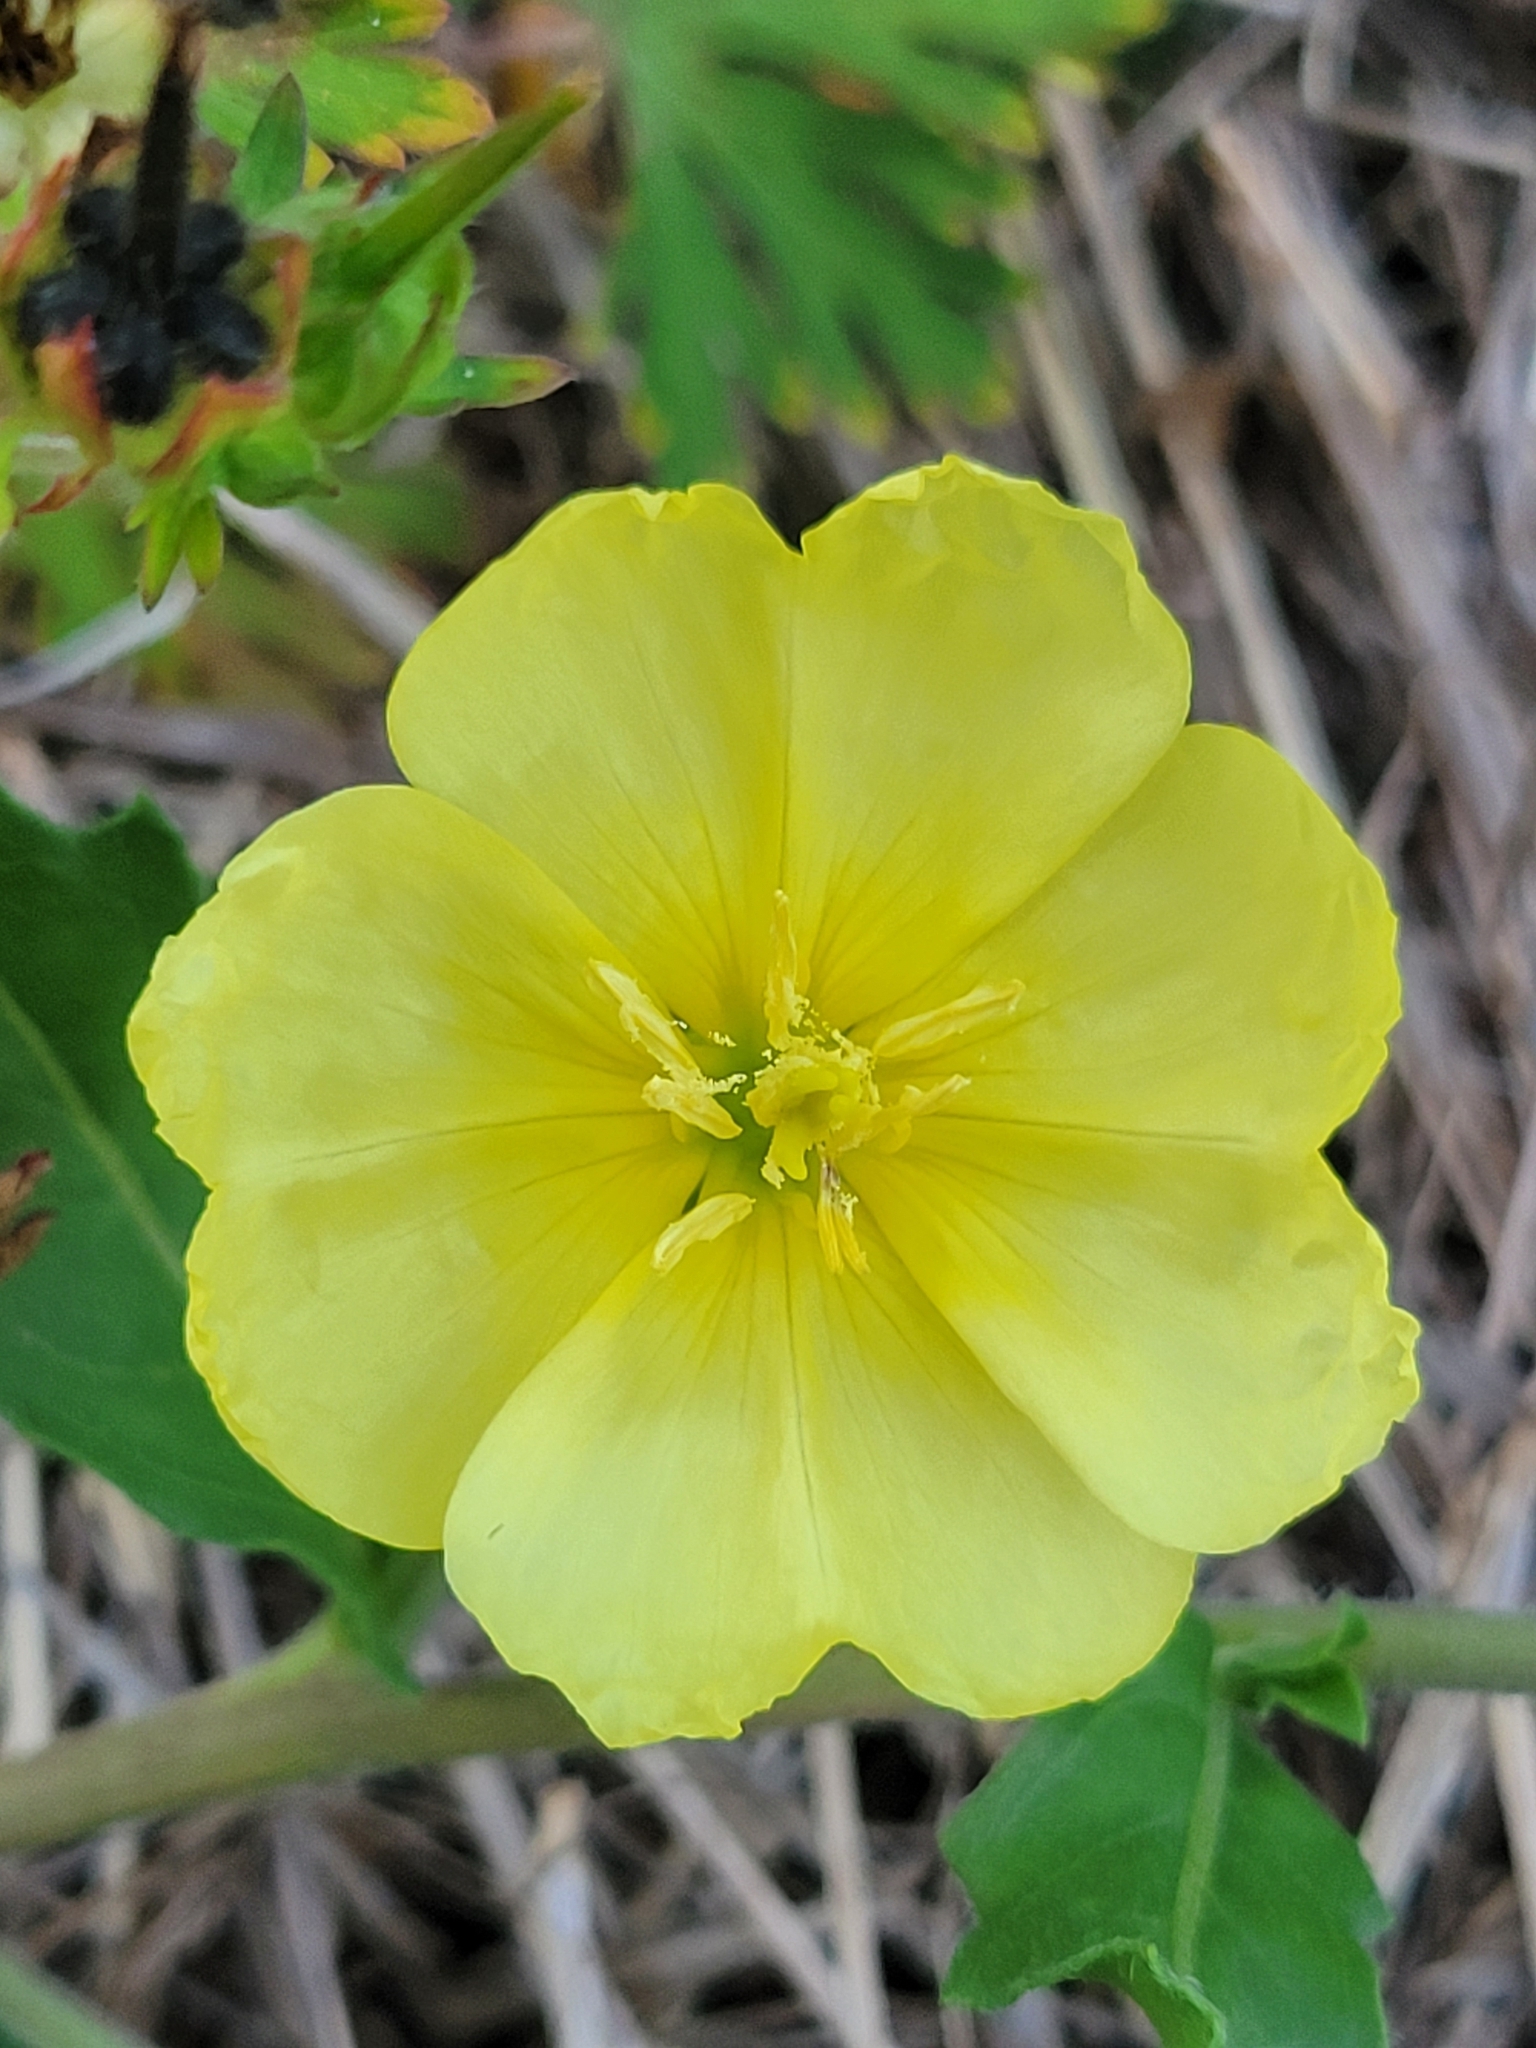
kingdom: Plantae
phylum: Tracheophyta
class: Magnoliopsida
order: Myrtales
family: Onagraceae
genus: Oenothera
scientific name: Oenothera laciniata
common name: Cut-leaved evening-primrose
